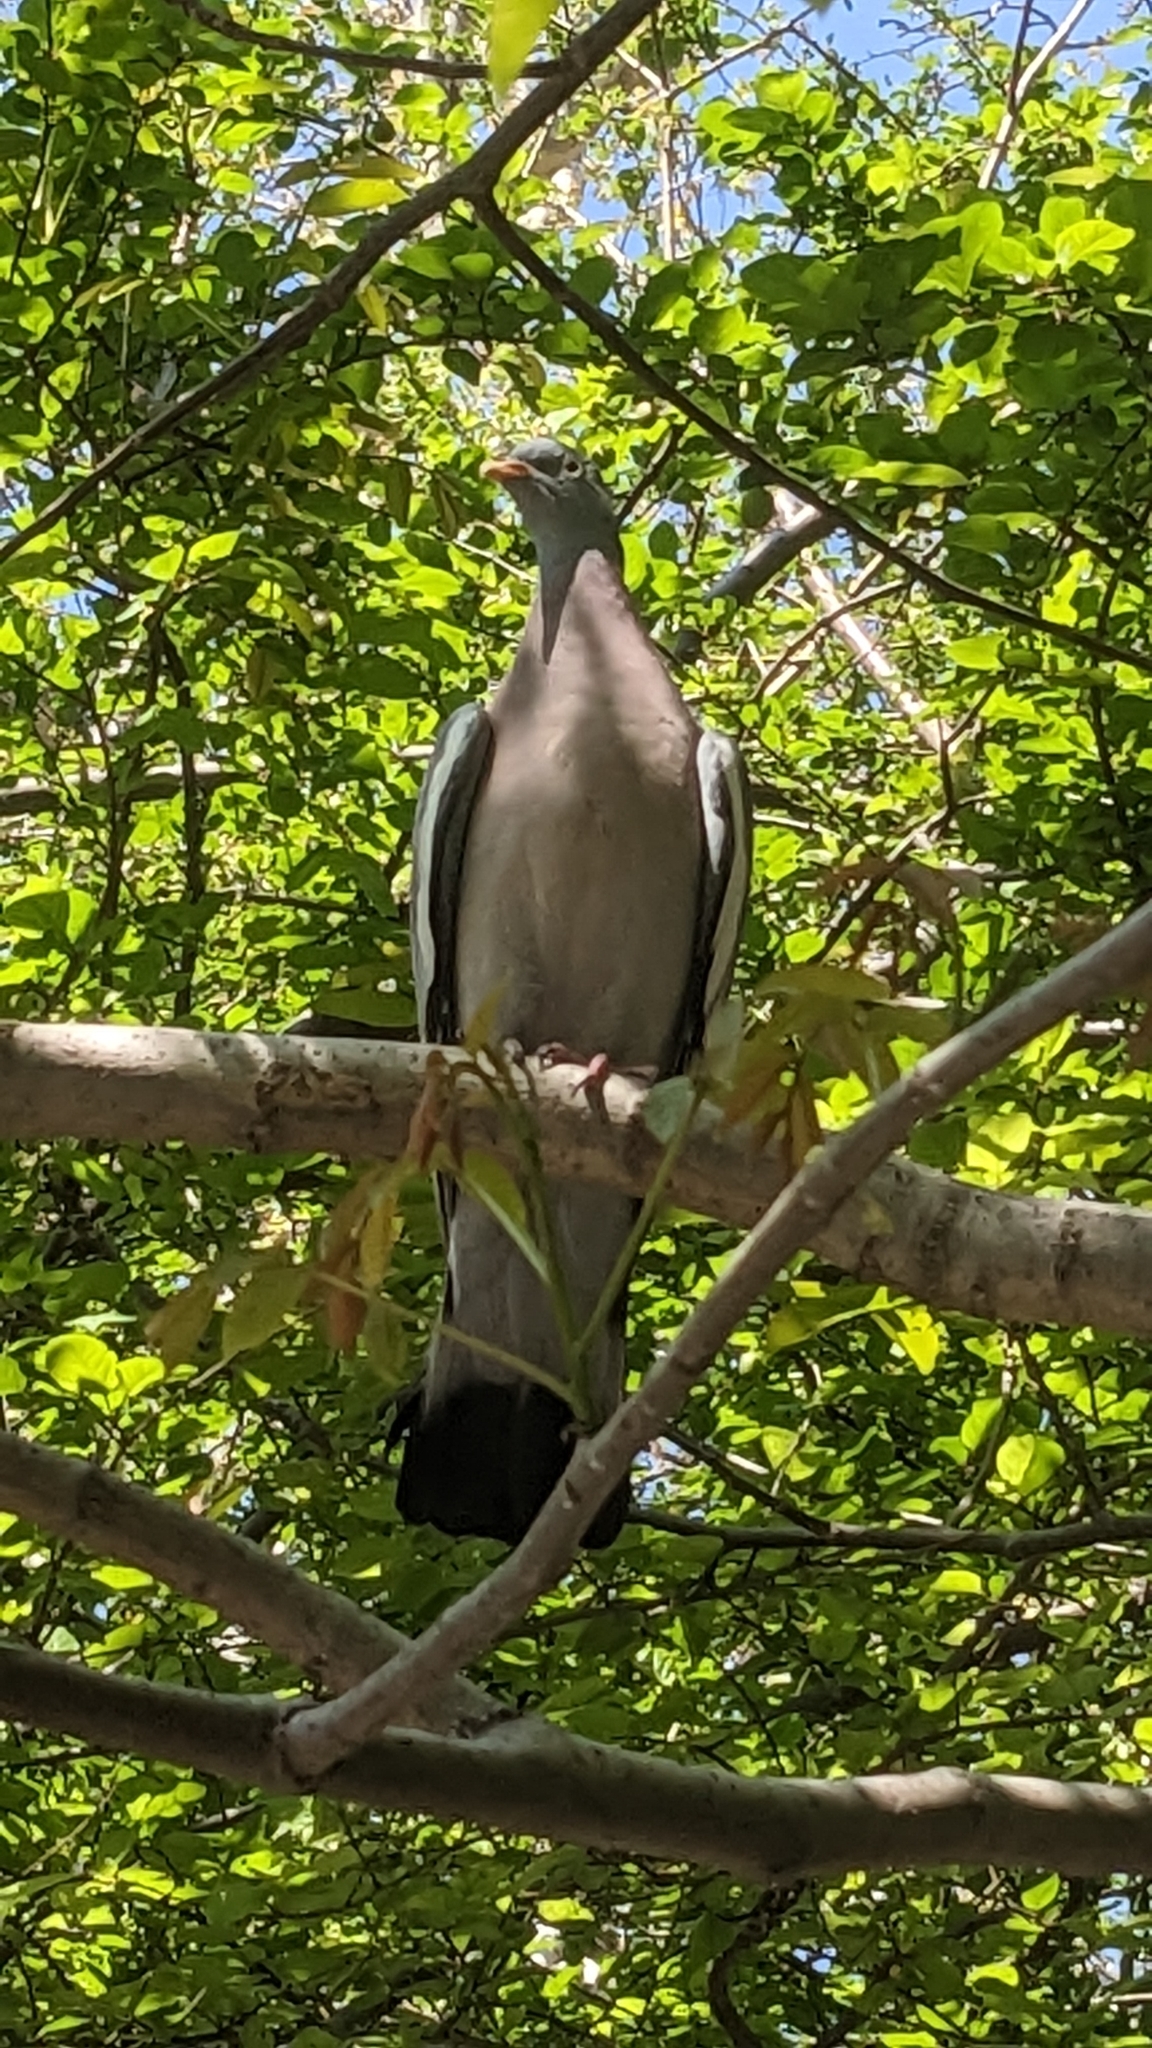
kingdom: Animalia
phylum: Chordata
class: Aves
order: Columbiformes
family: Columbidae
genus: Columba
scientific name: Columba palumbus
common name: Common wood pigeon
